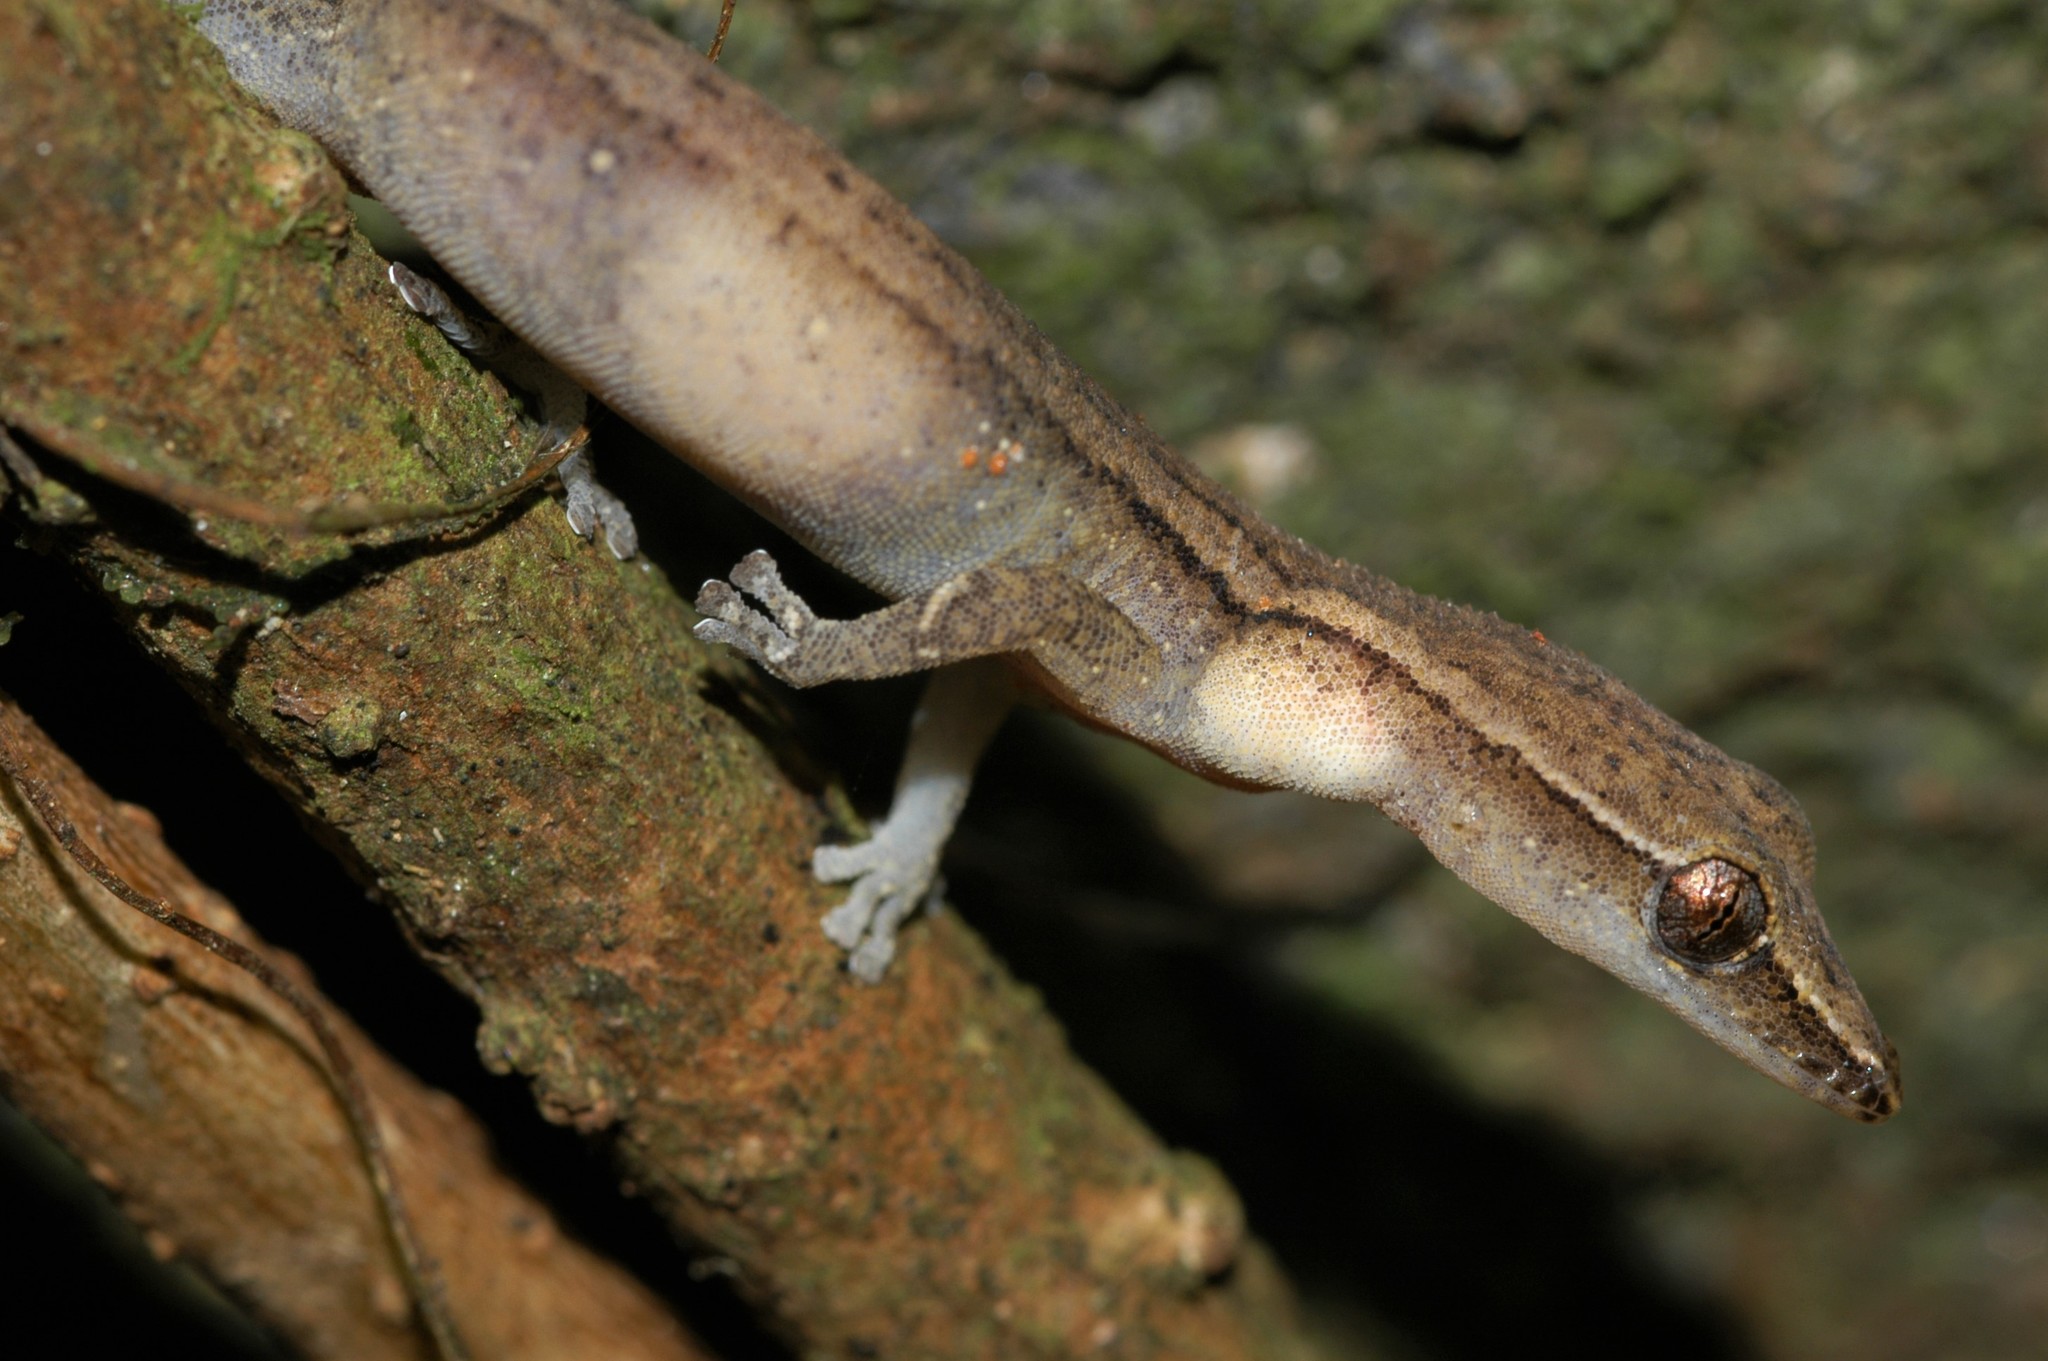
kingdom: Animalia
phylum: Chordata
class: Squamata
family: Gekkonidae
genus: Ebenavia
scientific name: Ebenavia boettgeri
